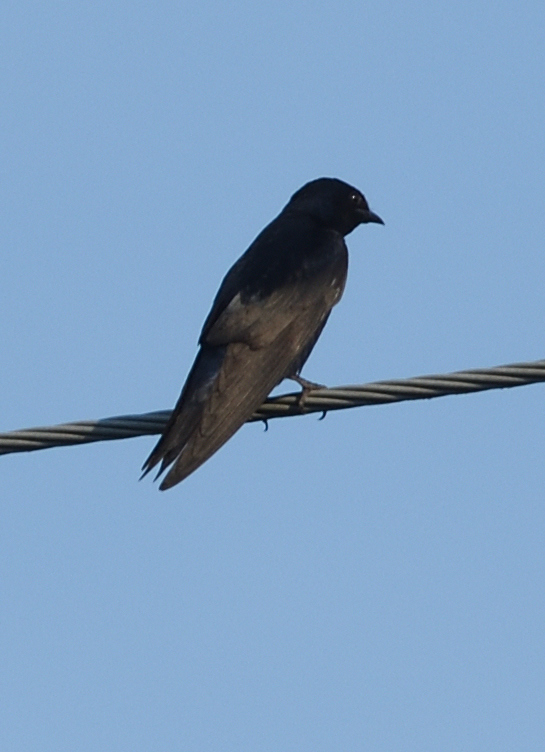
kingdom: Animalia
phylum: Chordata
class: Aves
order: Passeriformes
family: Hirundinidae
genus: Progne
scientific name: Progne subis
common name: Purple martin
